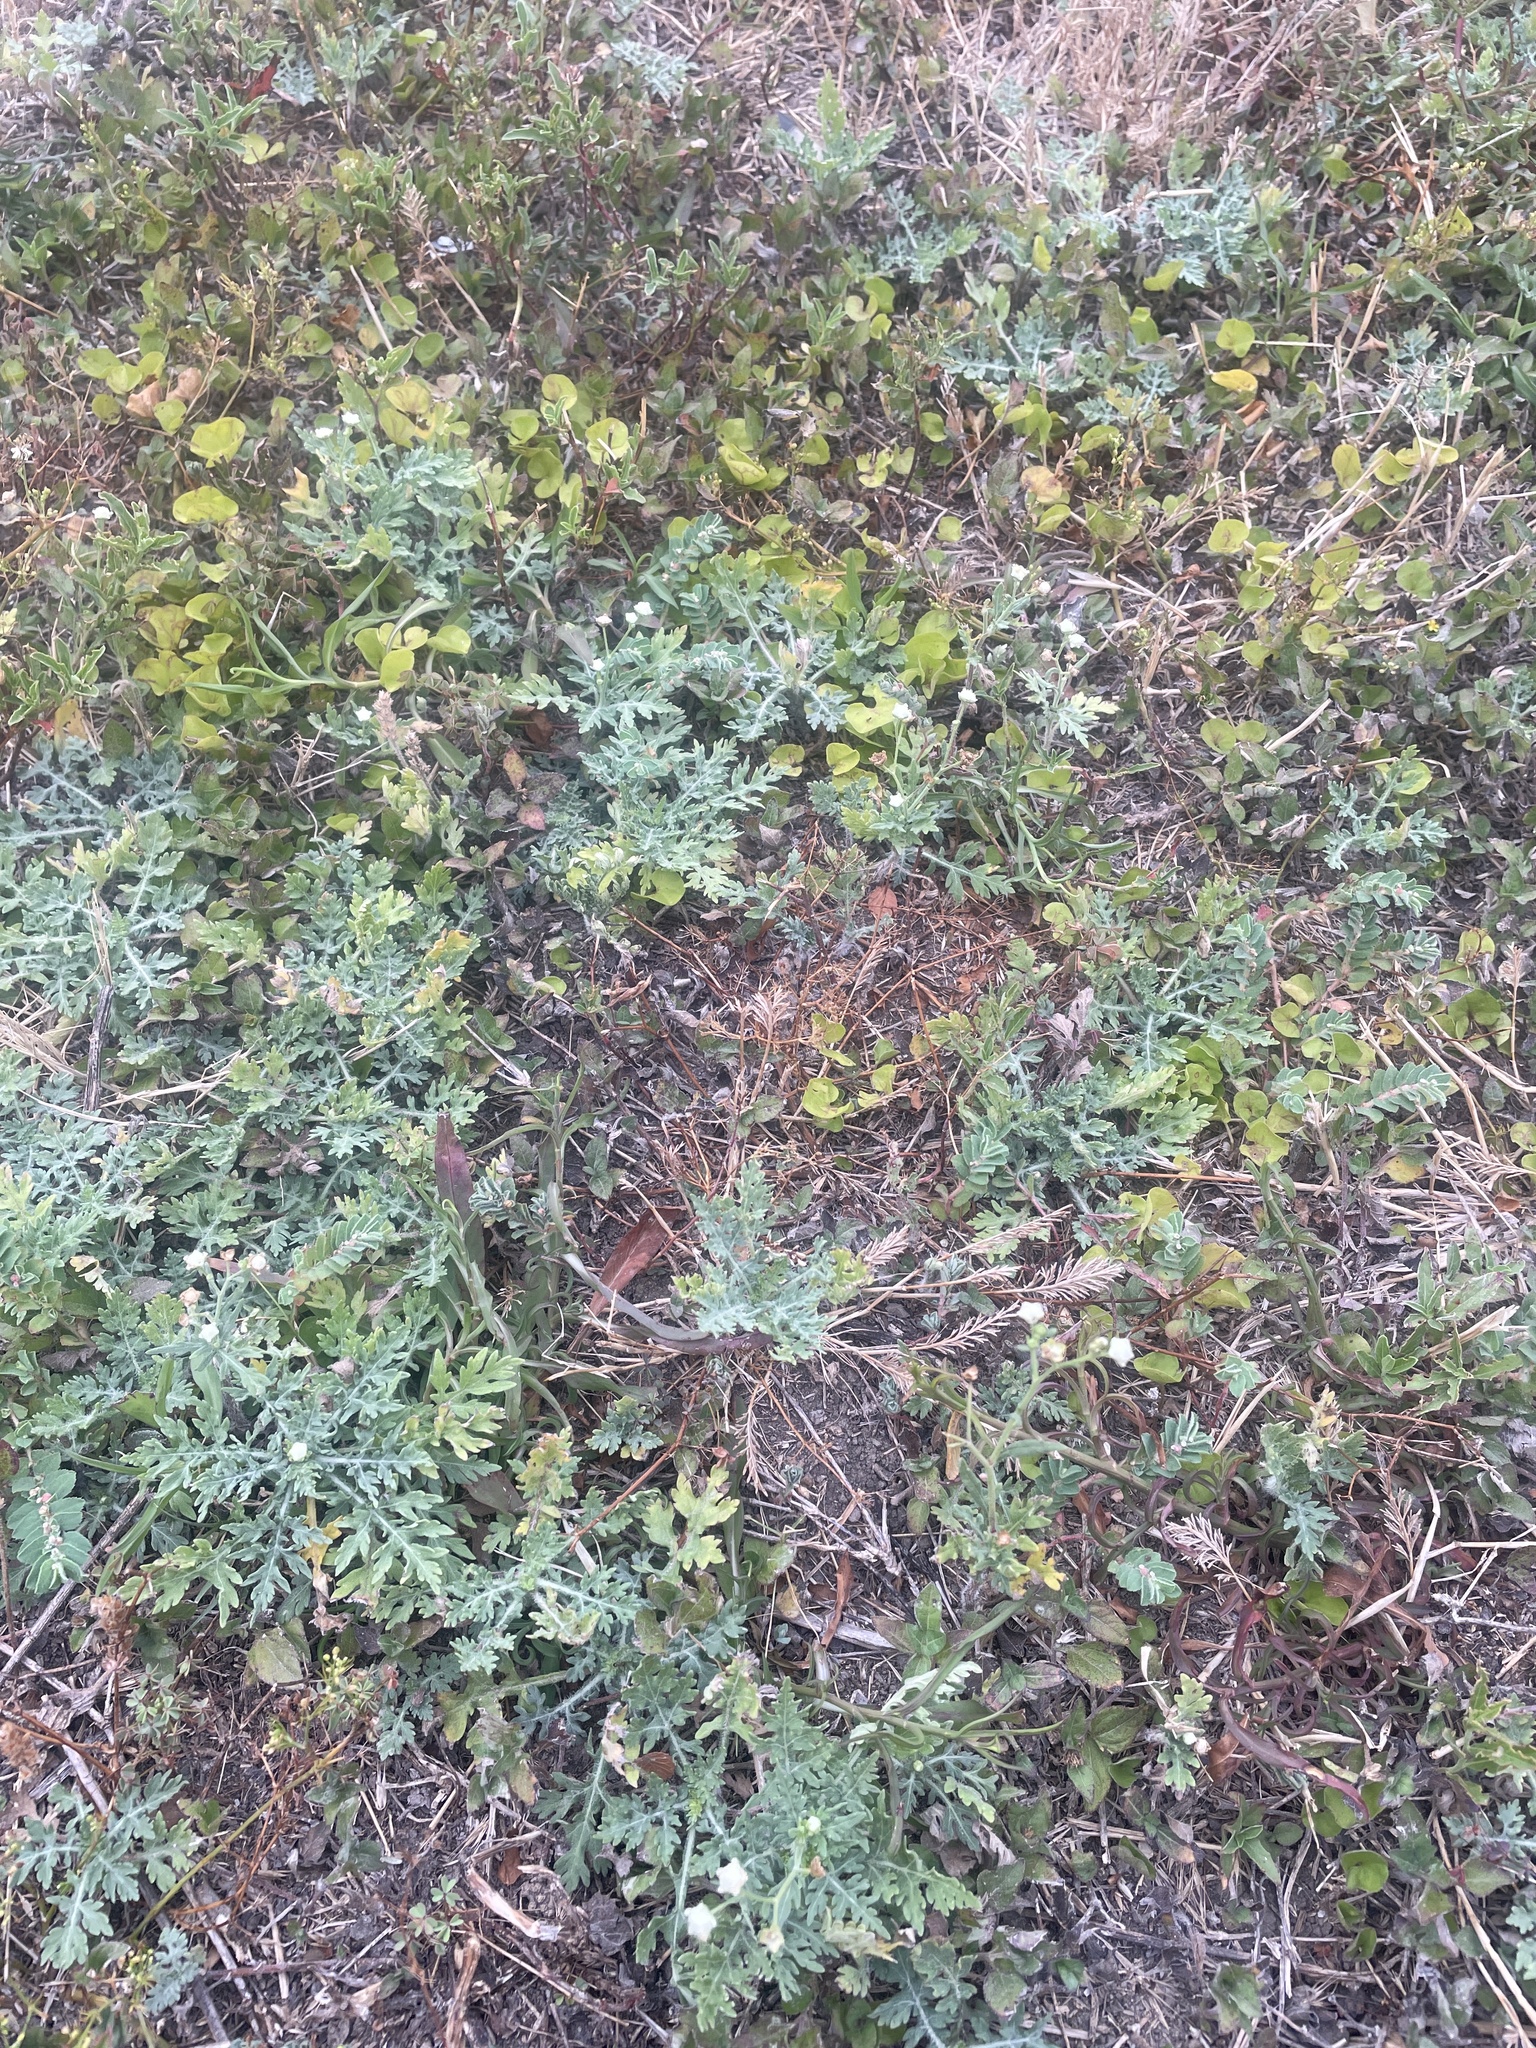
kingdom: Plantae
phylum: Tracheophyta
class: Magnoliopsida
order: Asterales
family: Asteraceae
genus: Parthenium
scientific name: Parthenium hysterophorus
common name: Santa maria feverfew
